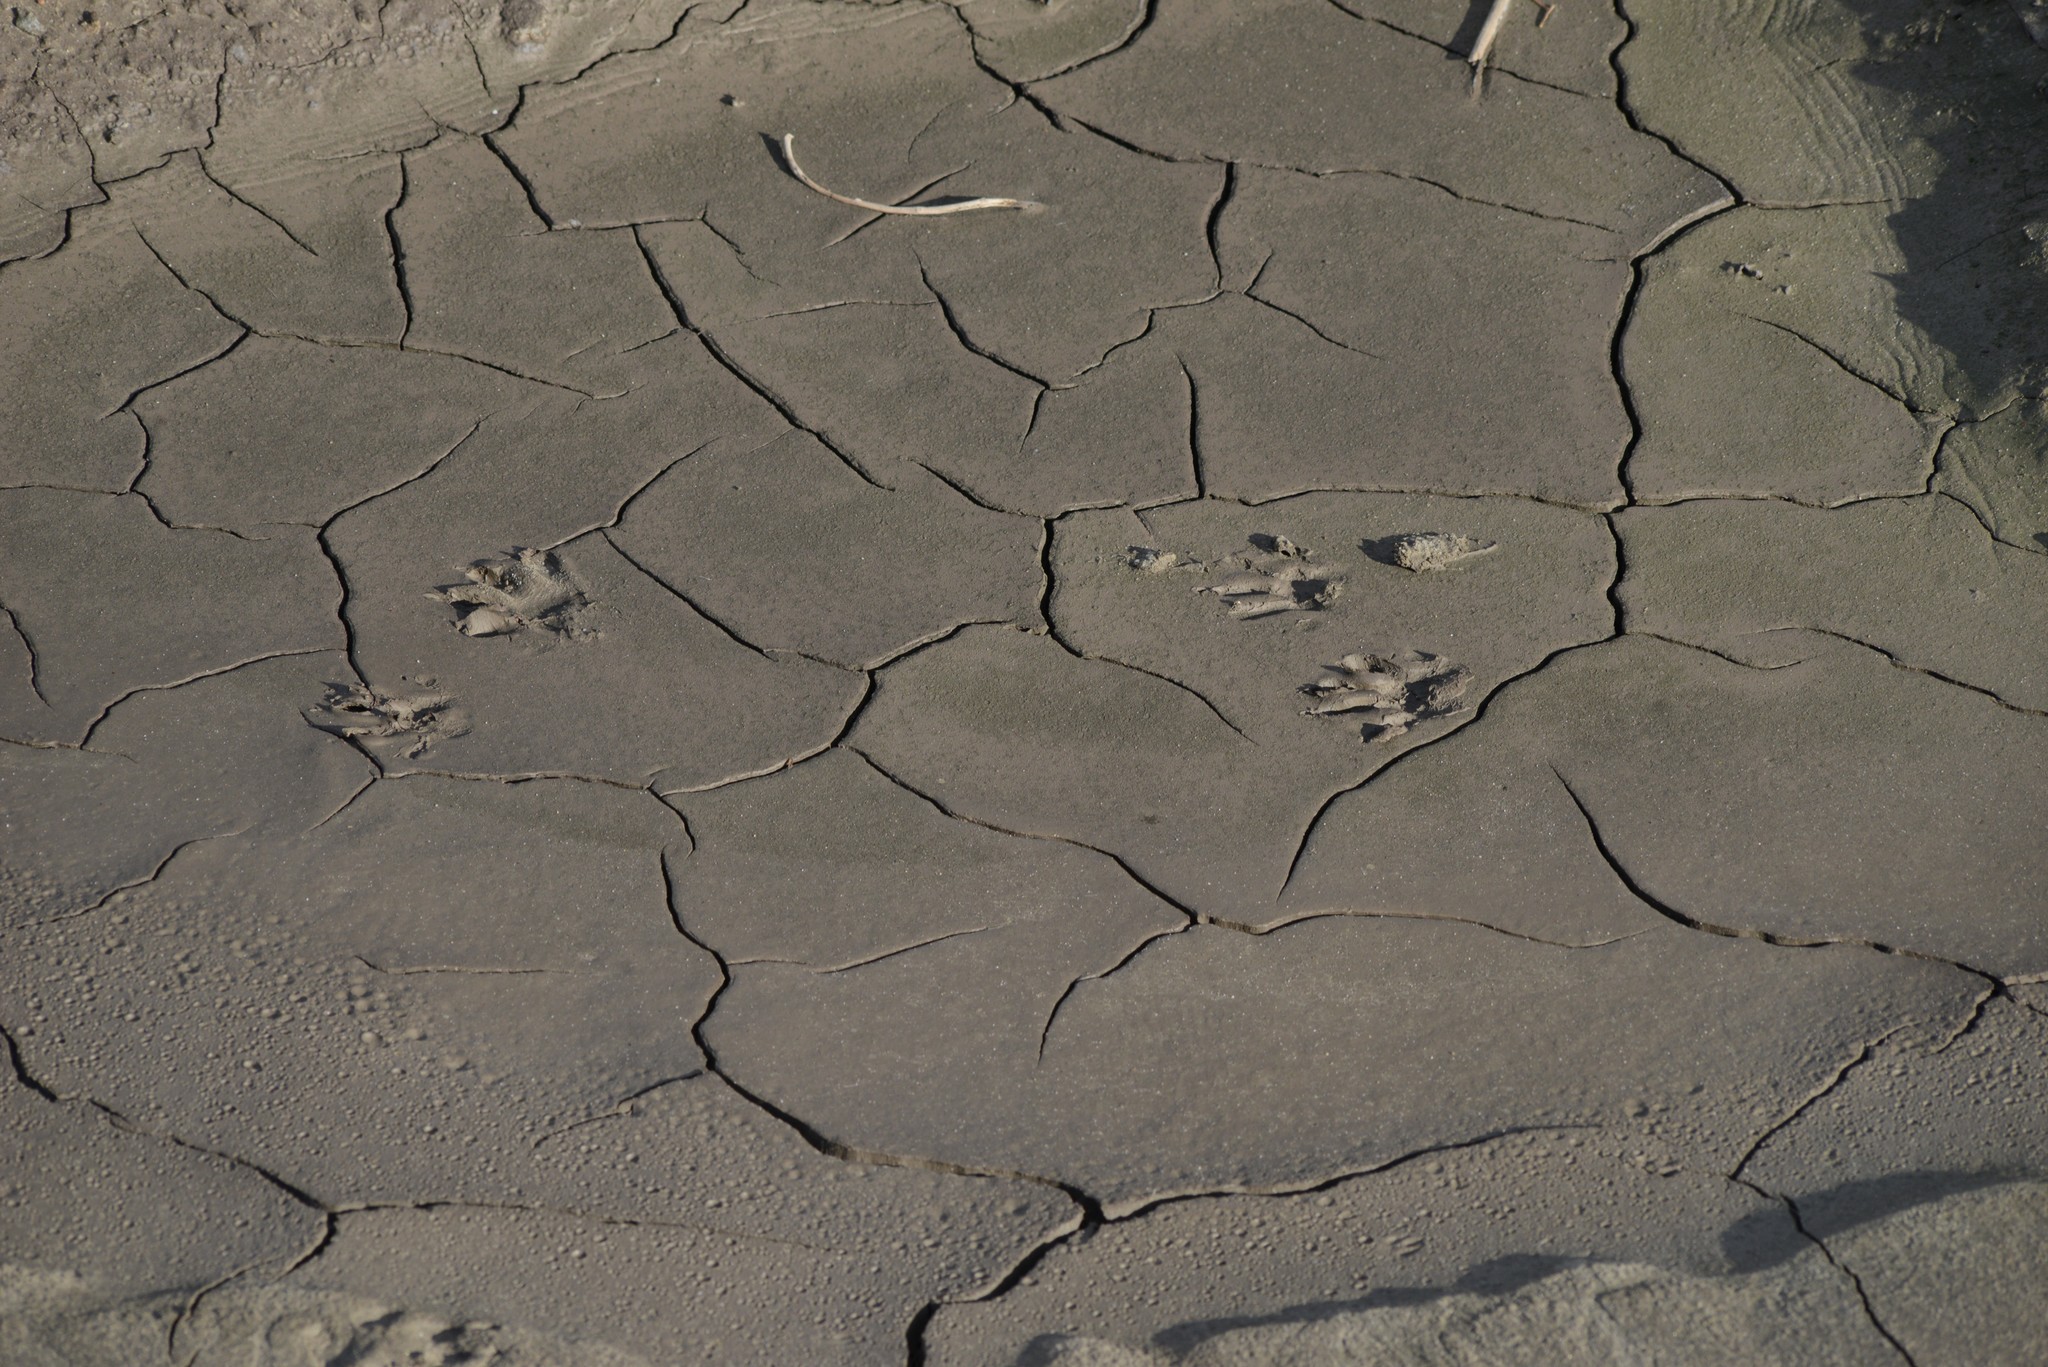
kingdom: Animalia
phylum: Chordata
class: Mammalia
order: Carnivora
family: Procyonidae
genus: Procyon
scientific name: Procyon lotor
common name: Raccoon
